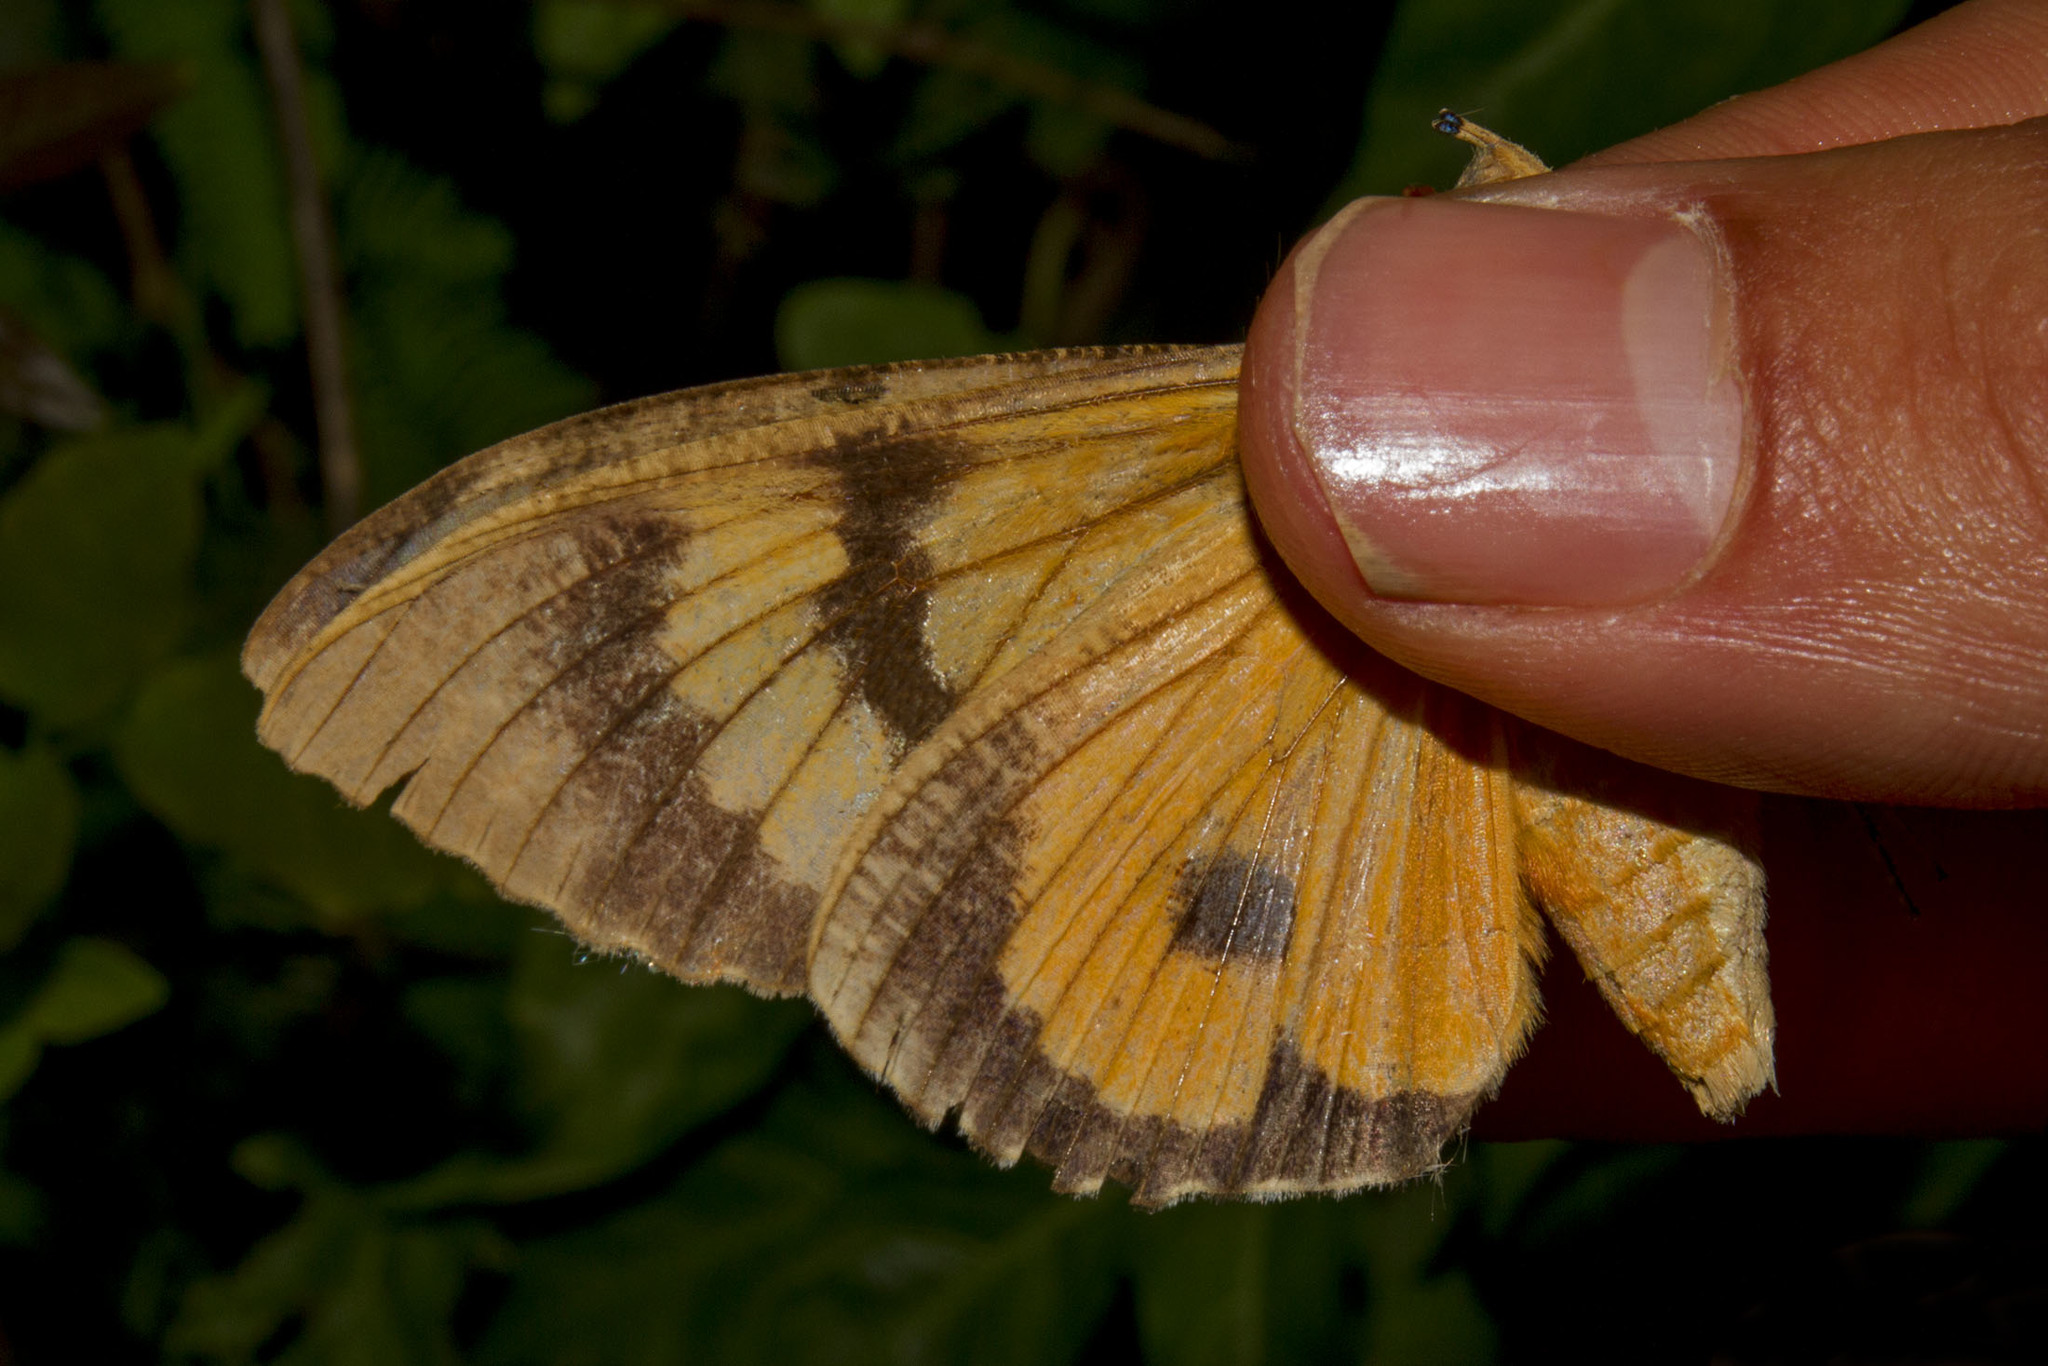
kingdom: Animalia
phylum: Arthropoda
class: Insecta
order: Lepidoptera
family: Erebidae
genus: Eudocima
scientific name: Eudocima apta
